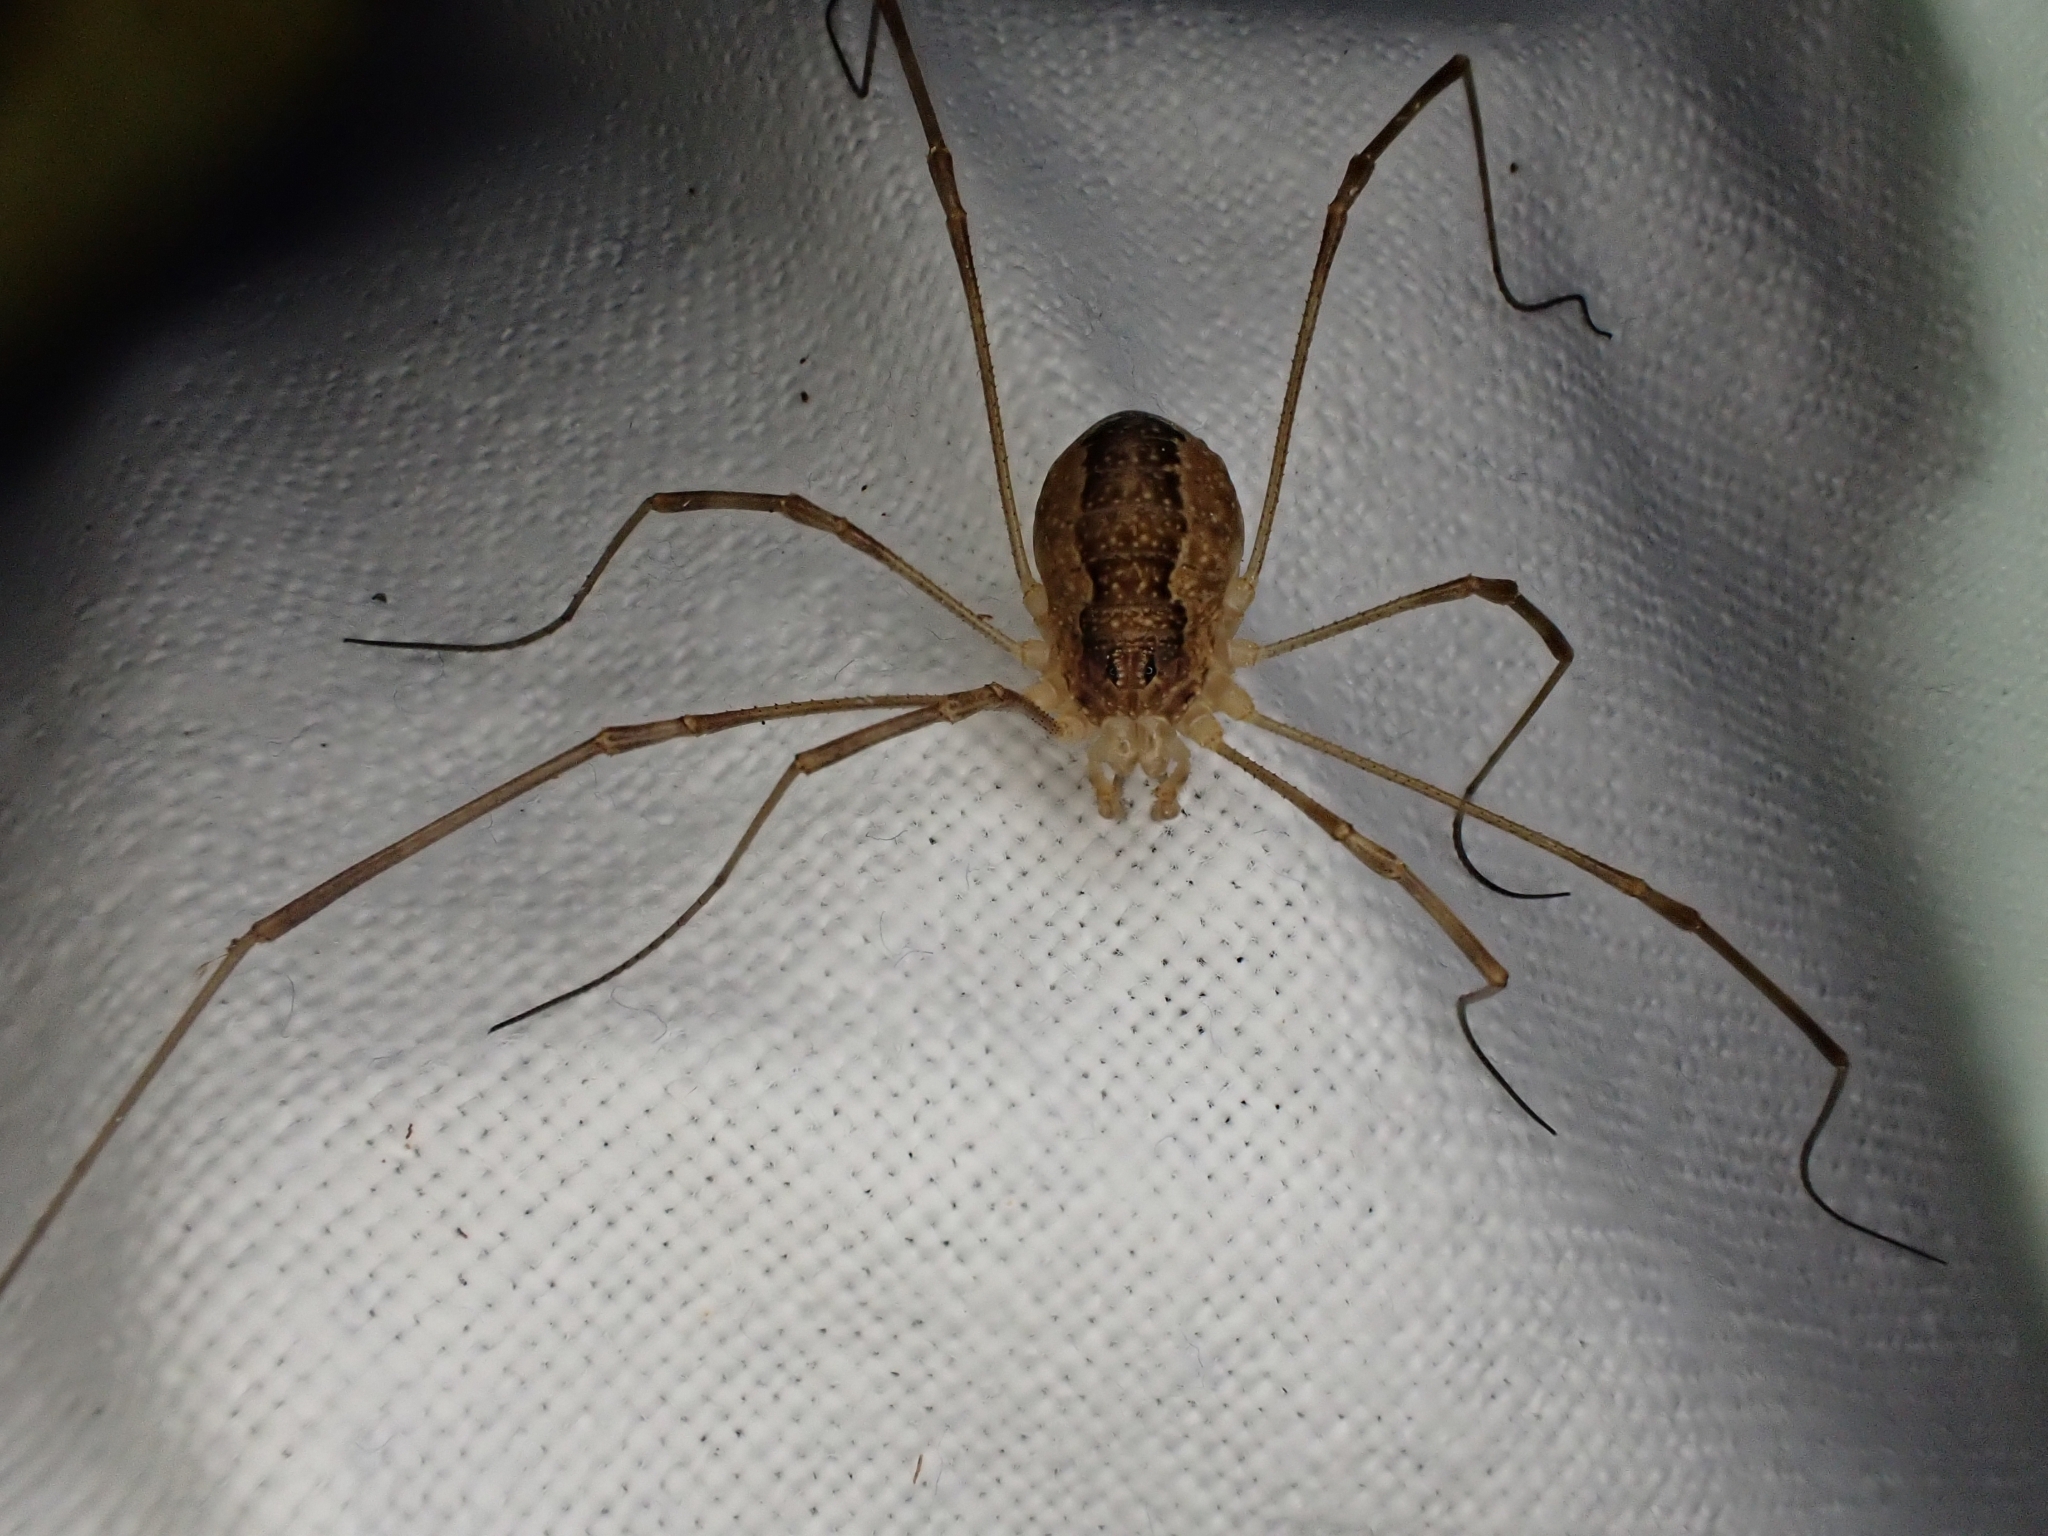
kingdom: Animalia
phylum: Arthropoda
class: Arachnida
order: Opiliones
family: Phalangiidae
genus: Rilaena
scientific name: Rilaena triangularis
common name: Spring harvestman
